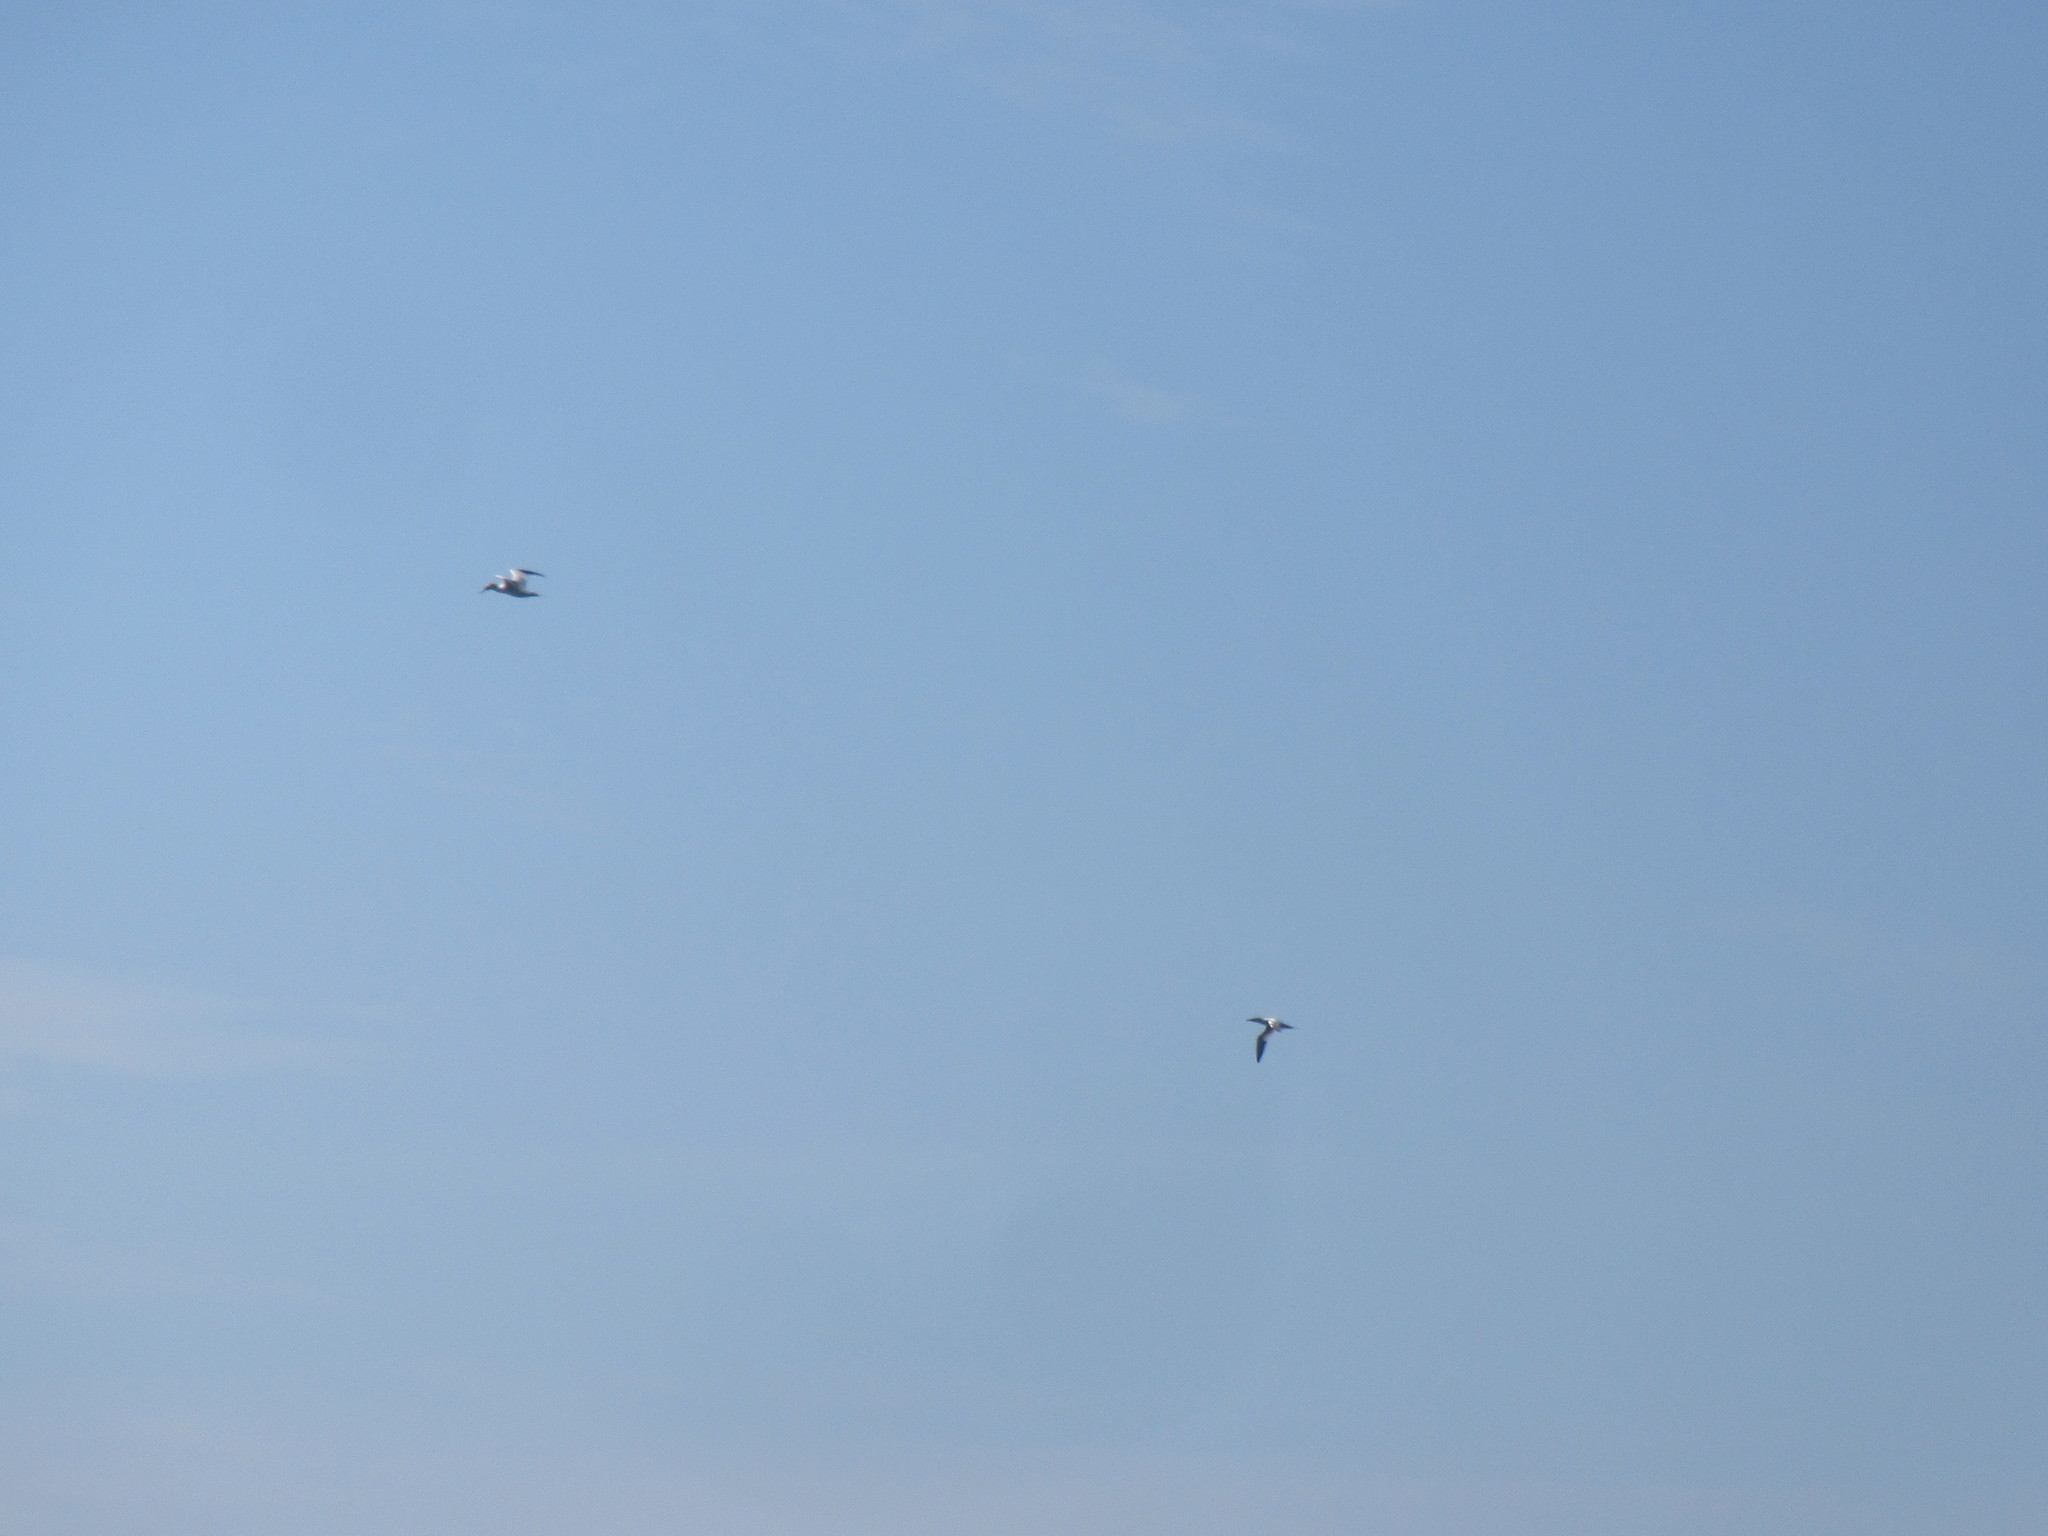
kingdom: Animalia
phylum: Chordata
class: Aves
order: Suliformes
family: Sulidae
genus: Morus
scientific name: Morus bassanus
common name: Northern gannet
